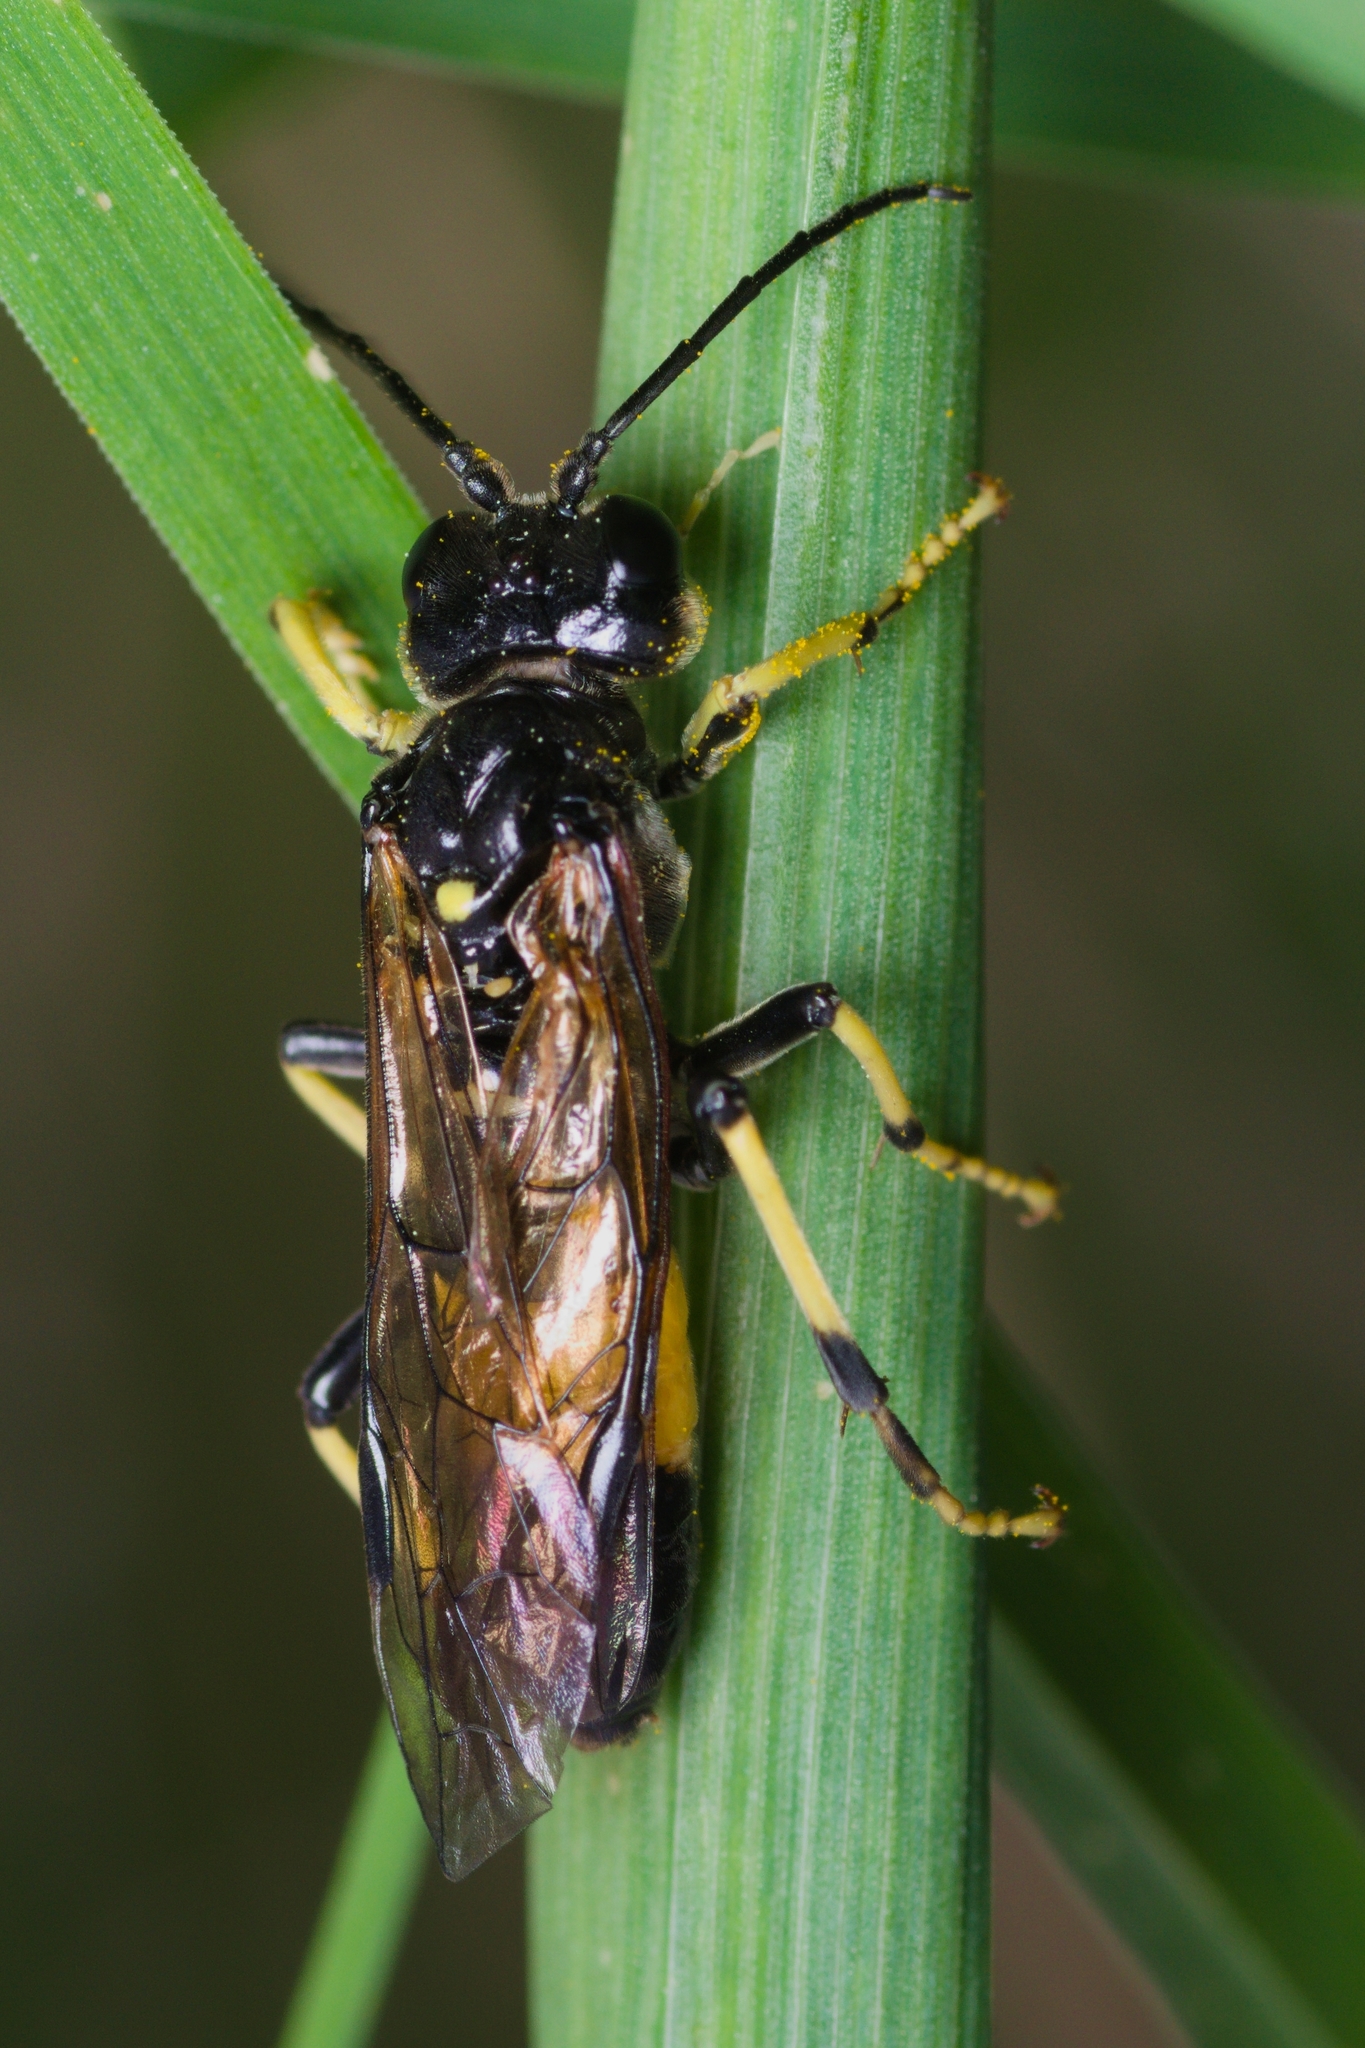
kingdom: Animalia
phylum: Arthropoda
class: Insecta
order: Hymenoptera
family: Tenthredinidae
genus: Tenthredo
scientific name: Tenthredo maculata
